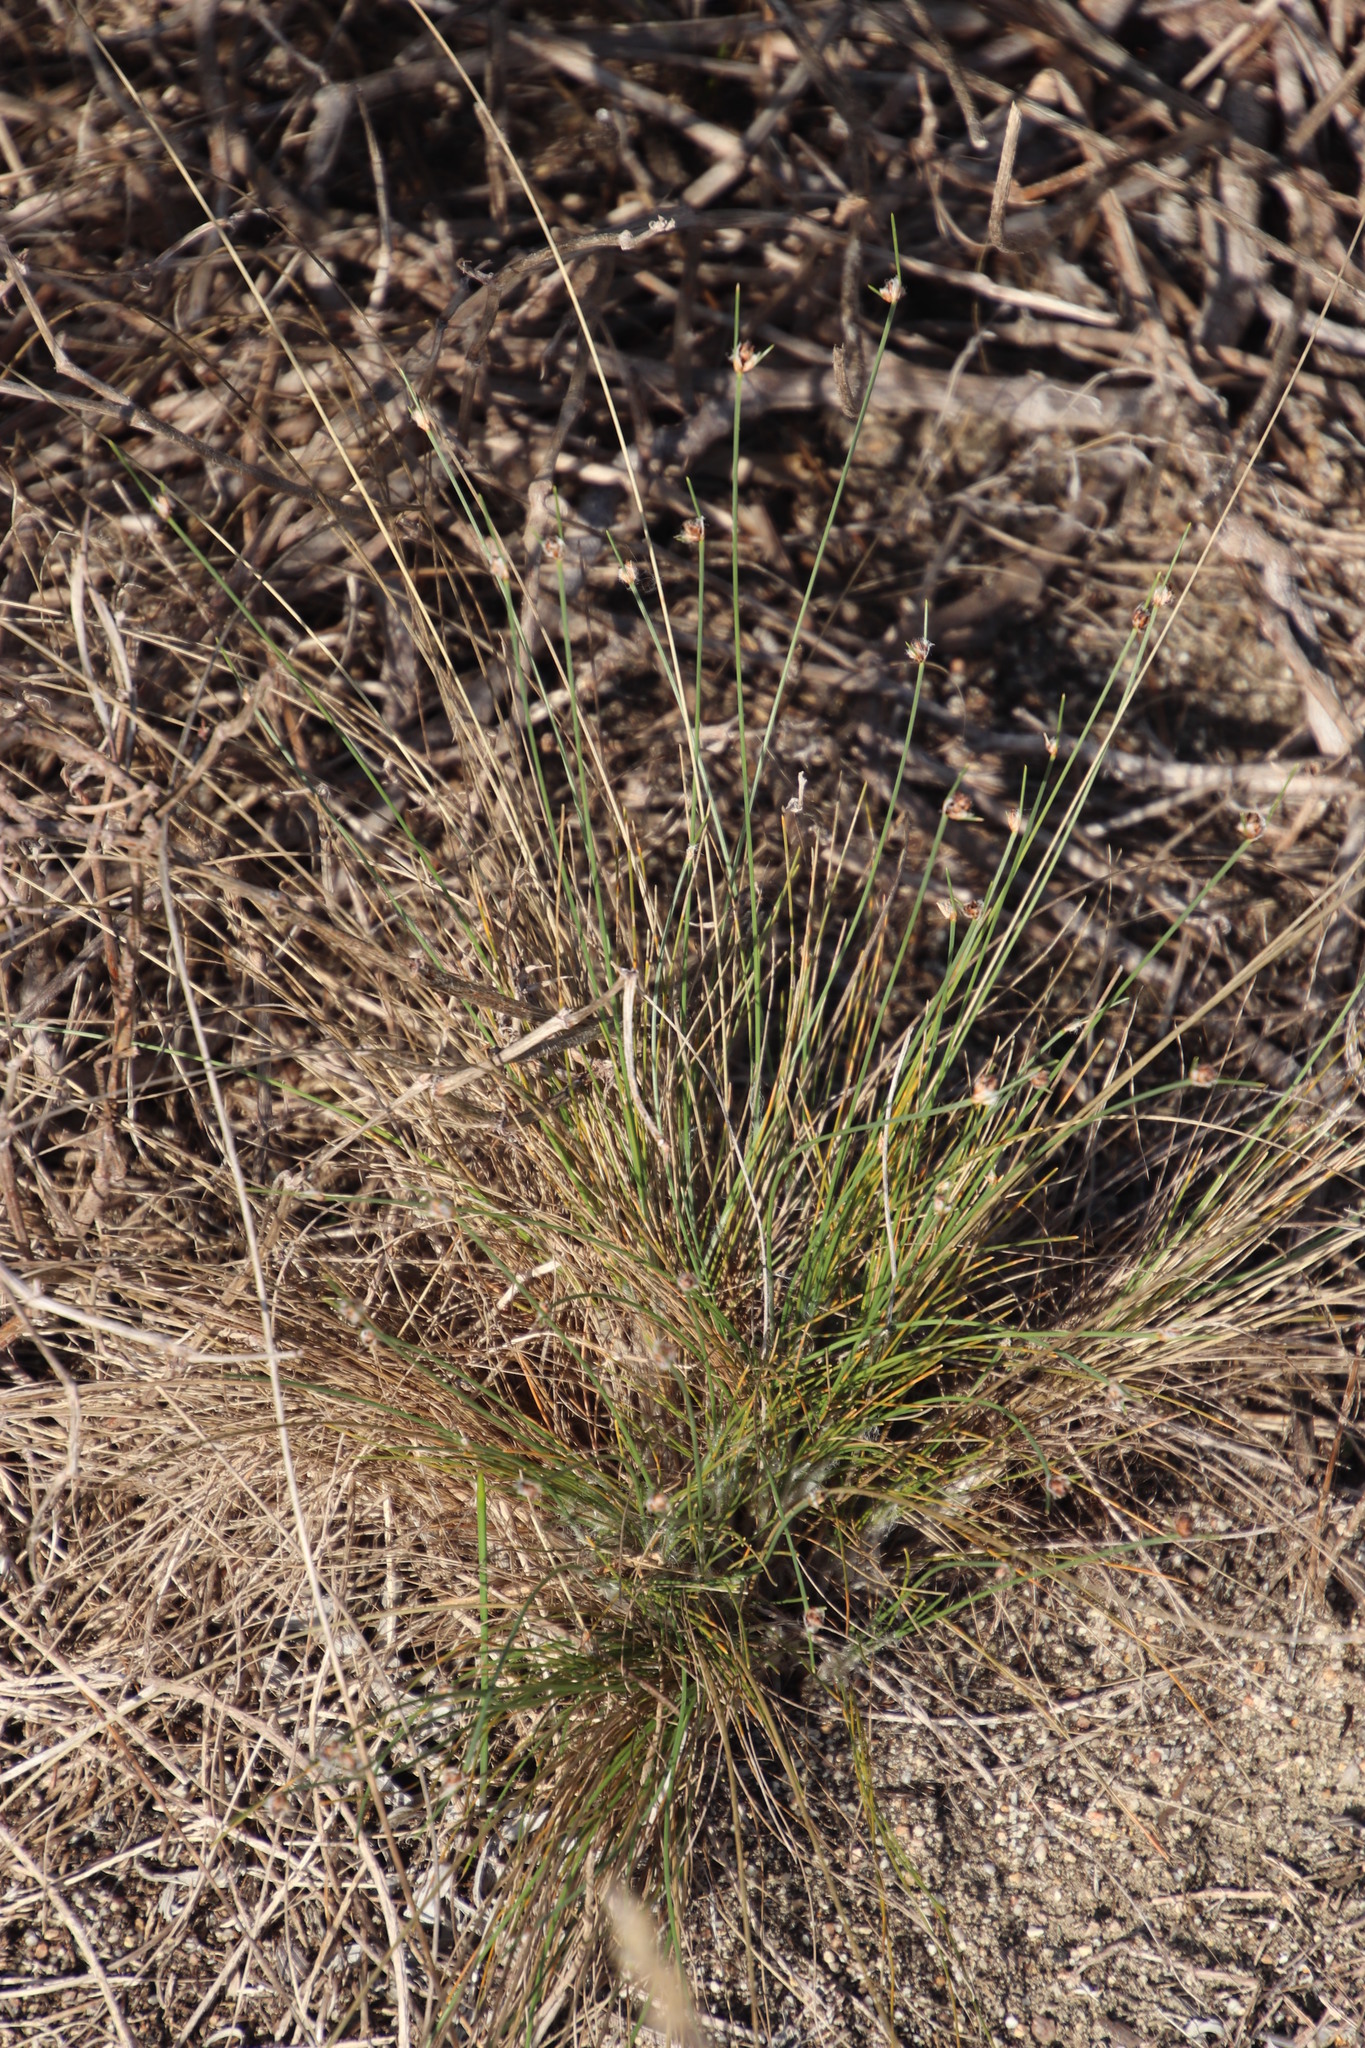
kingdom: Plantae
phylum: Tracheophyta
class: Liliopsida
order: Poales
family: Cyperaceae
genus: Ficinia
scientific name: Ficinia paradoxa
